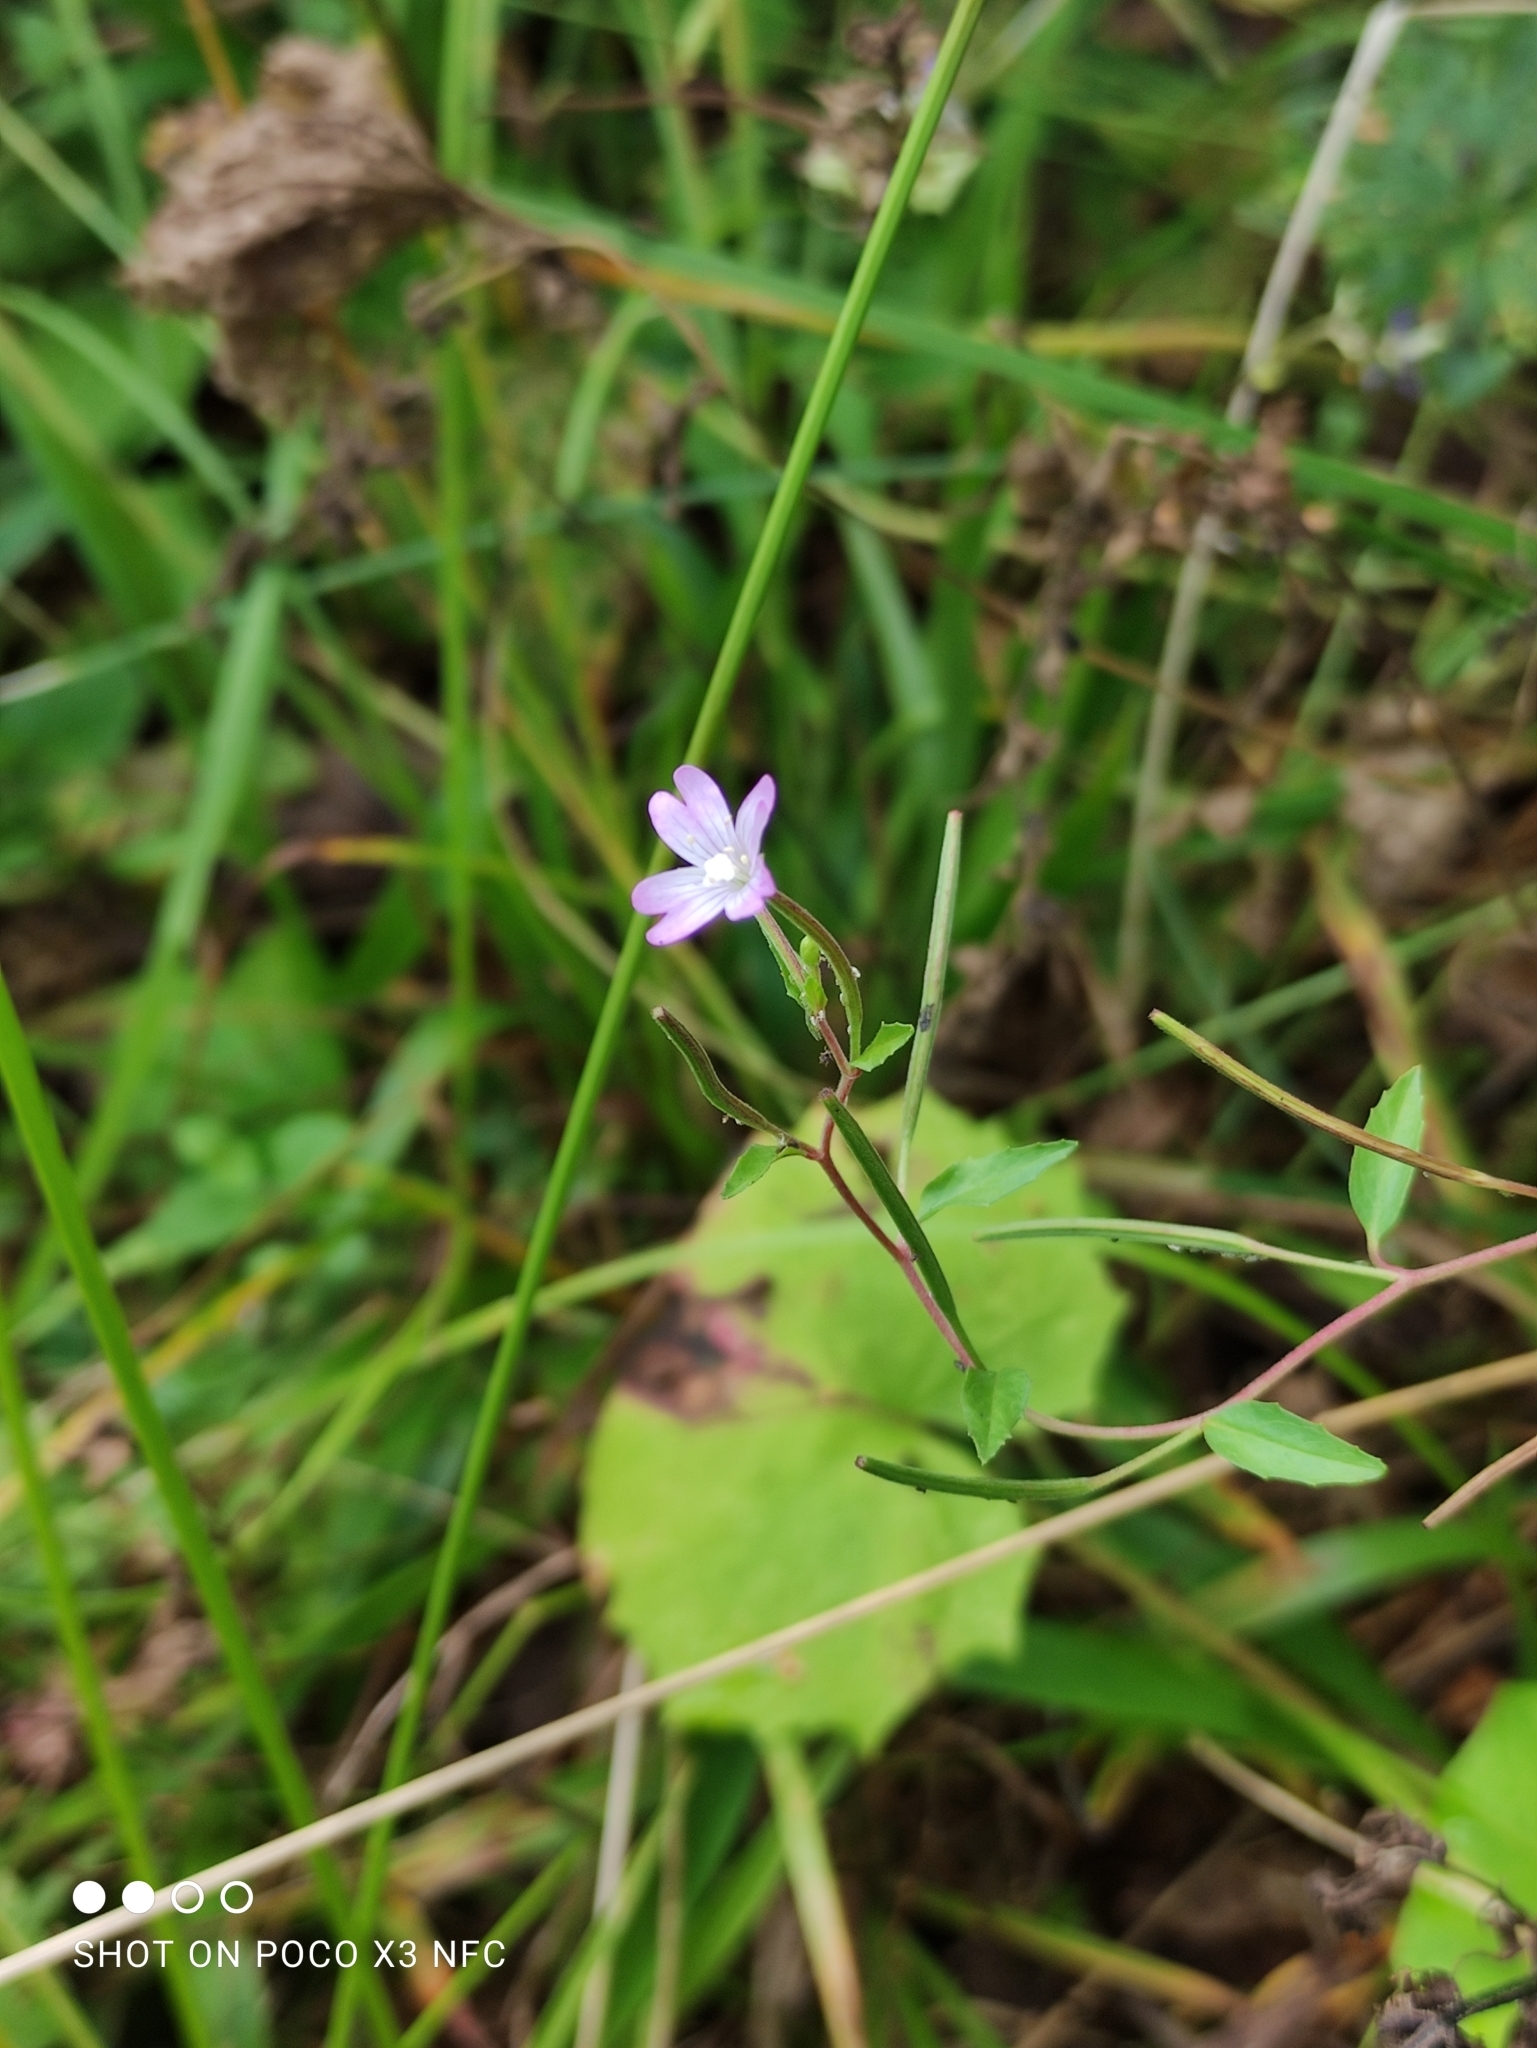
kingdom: Plantae
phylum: Tracheophyta
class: Magnoliopsida
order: Myrtales
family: Onagraceae
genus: Epilobium
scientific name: Epilobium montanum
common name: Broad-leaved willowherb
